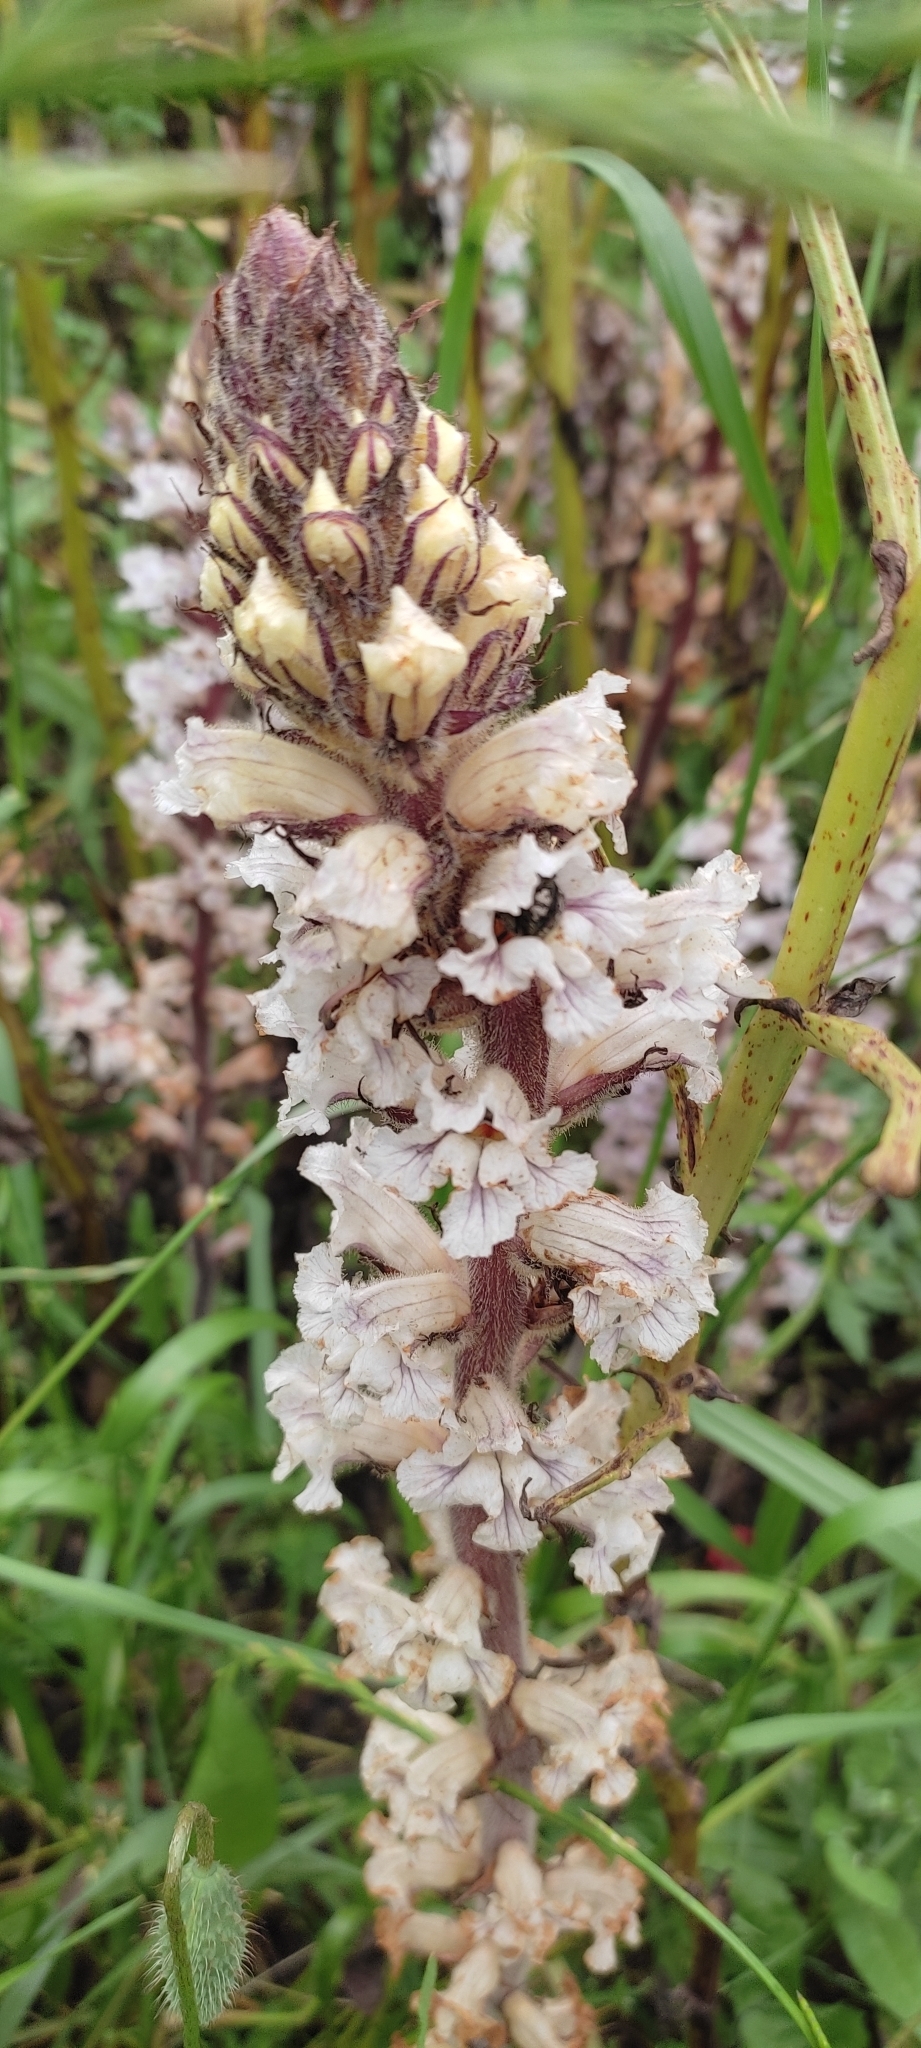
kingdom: Plantae
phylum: Tracheophyta
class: Magnoliopsida
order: Lamiales
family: Orobanchaceae
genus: Orobanche
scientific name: Orobanche crenata
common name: Bean broomrape
